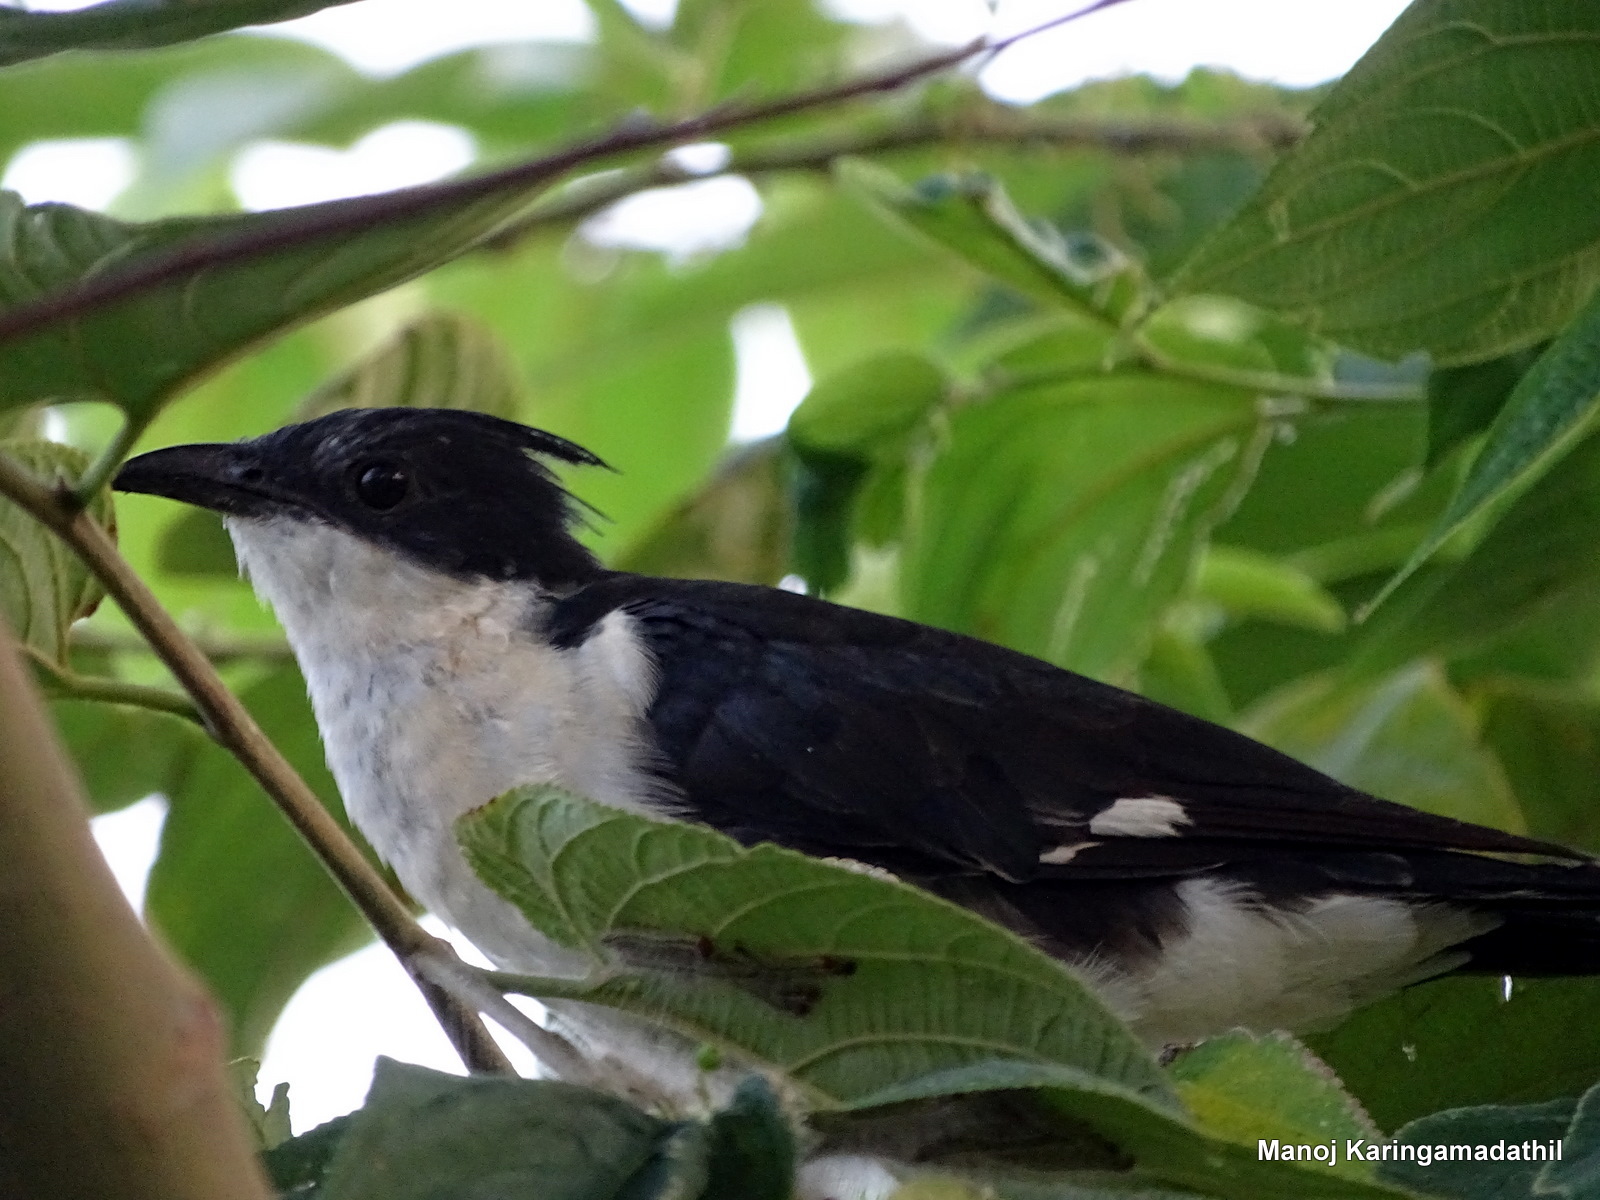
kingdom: Animalia
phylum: Chordata
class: Aves
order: Cuculiformes
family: Cuculidae
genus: Clamator
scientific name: Clamator jacobinus
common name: Jacobin cuckoo
